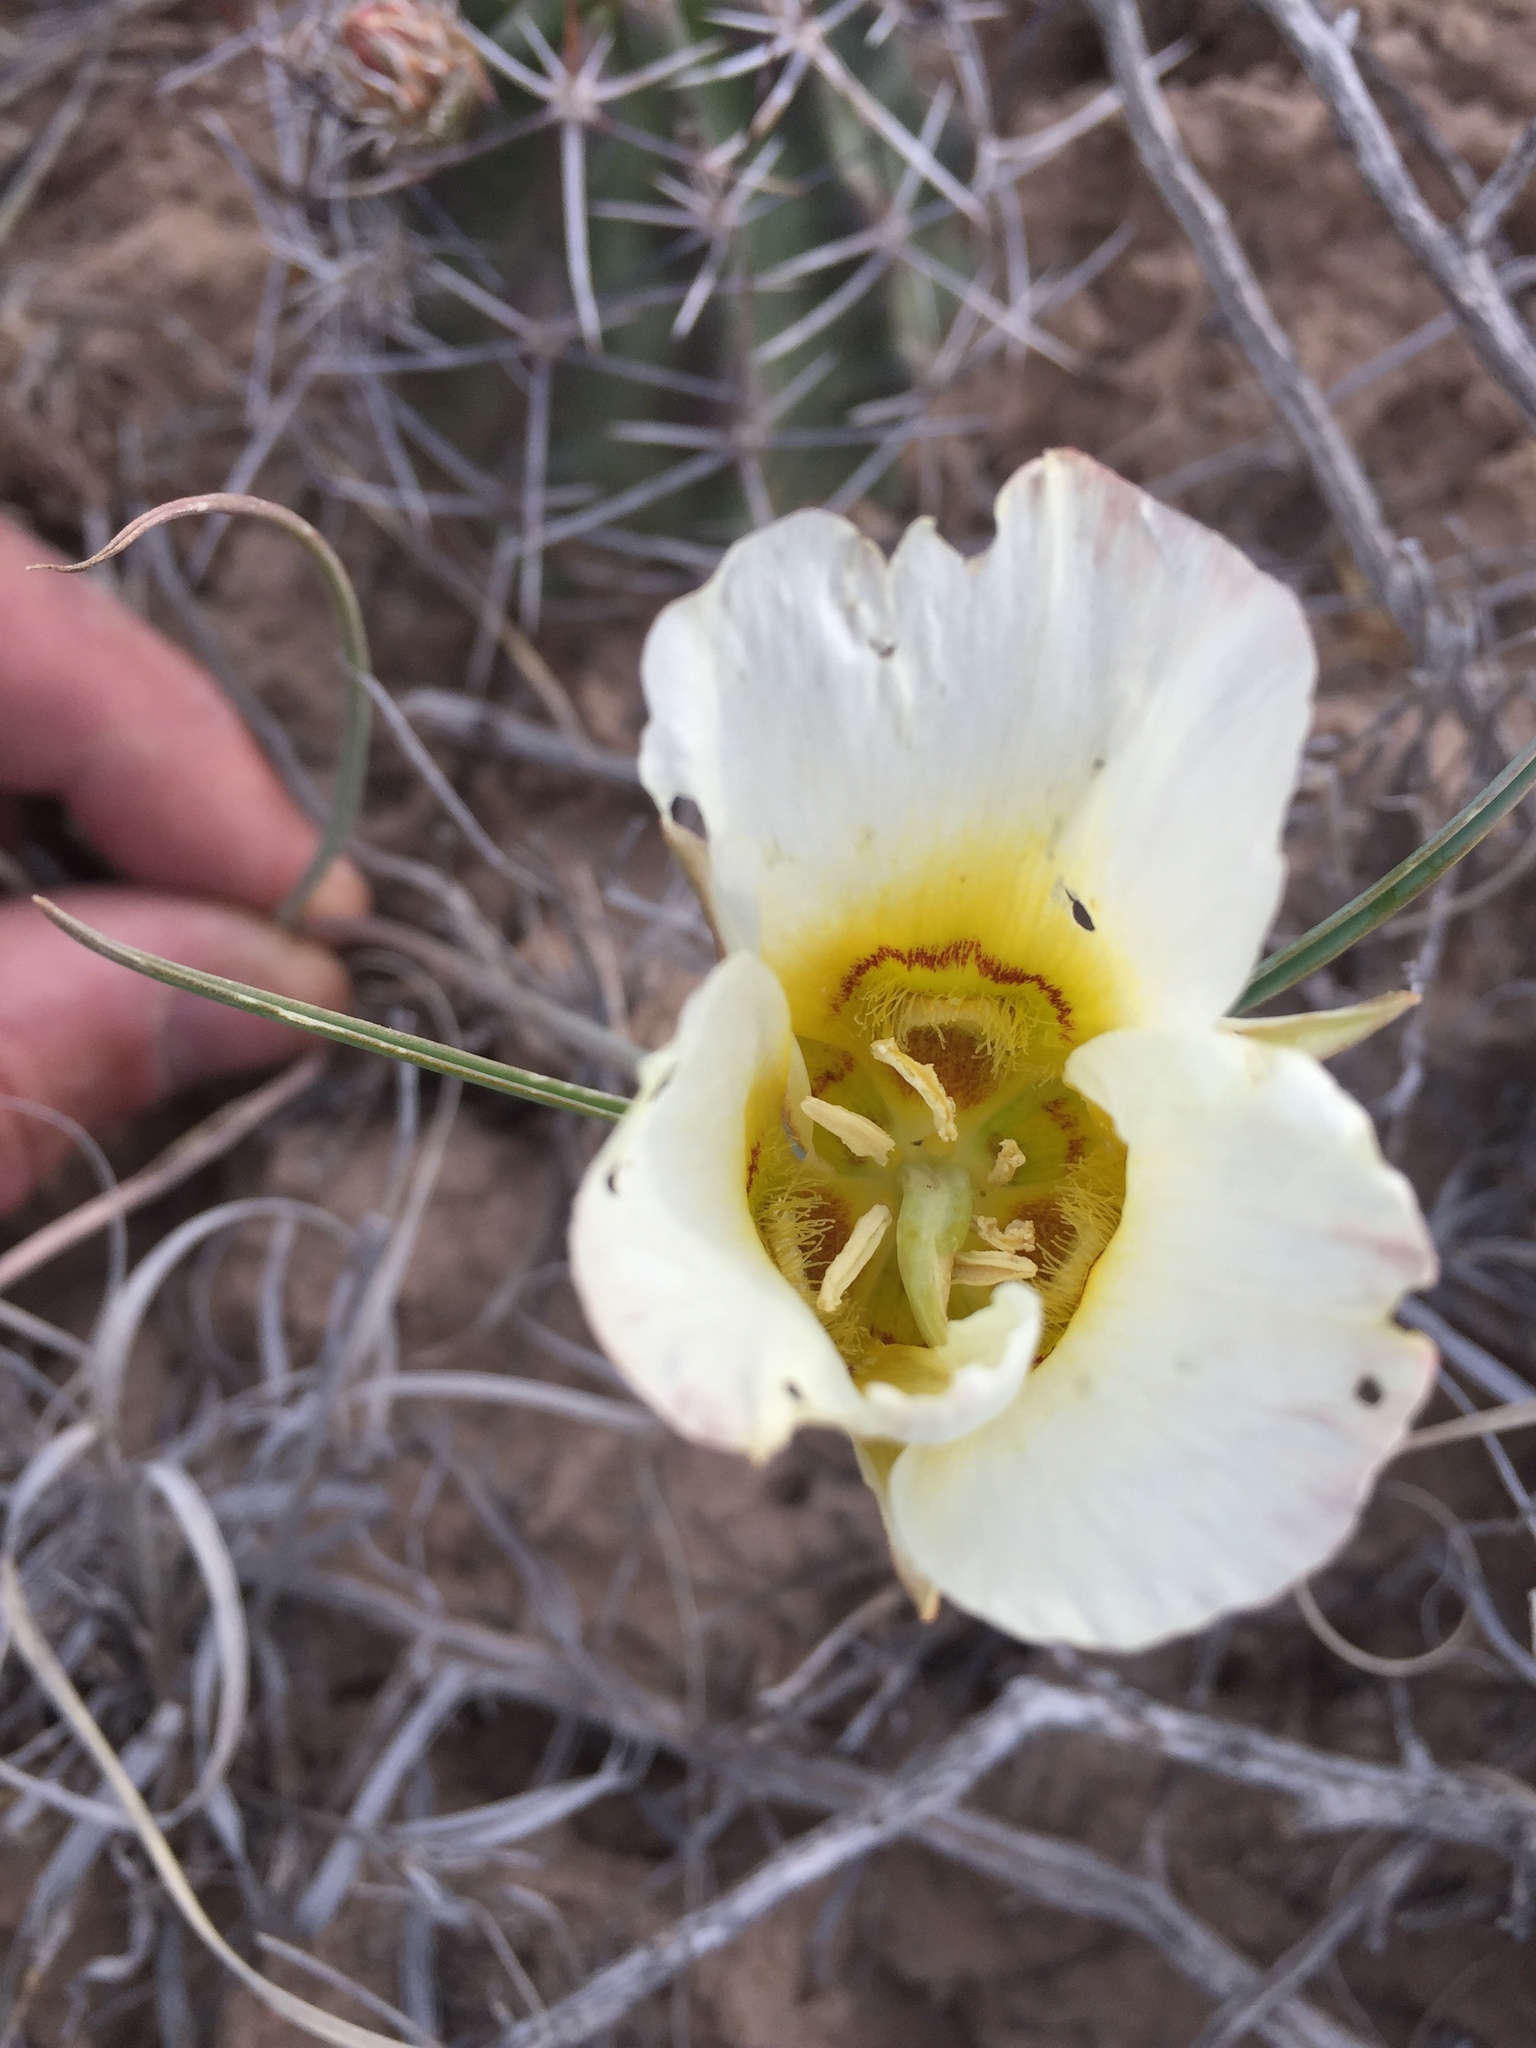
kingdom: Plantae
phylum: Tracheophyta
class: Liliopsida
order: Liliales
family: Liliaceae
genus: Calochortus
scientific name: Calochortus nuttallii
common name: Sego-lily
